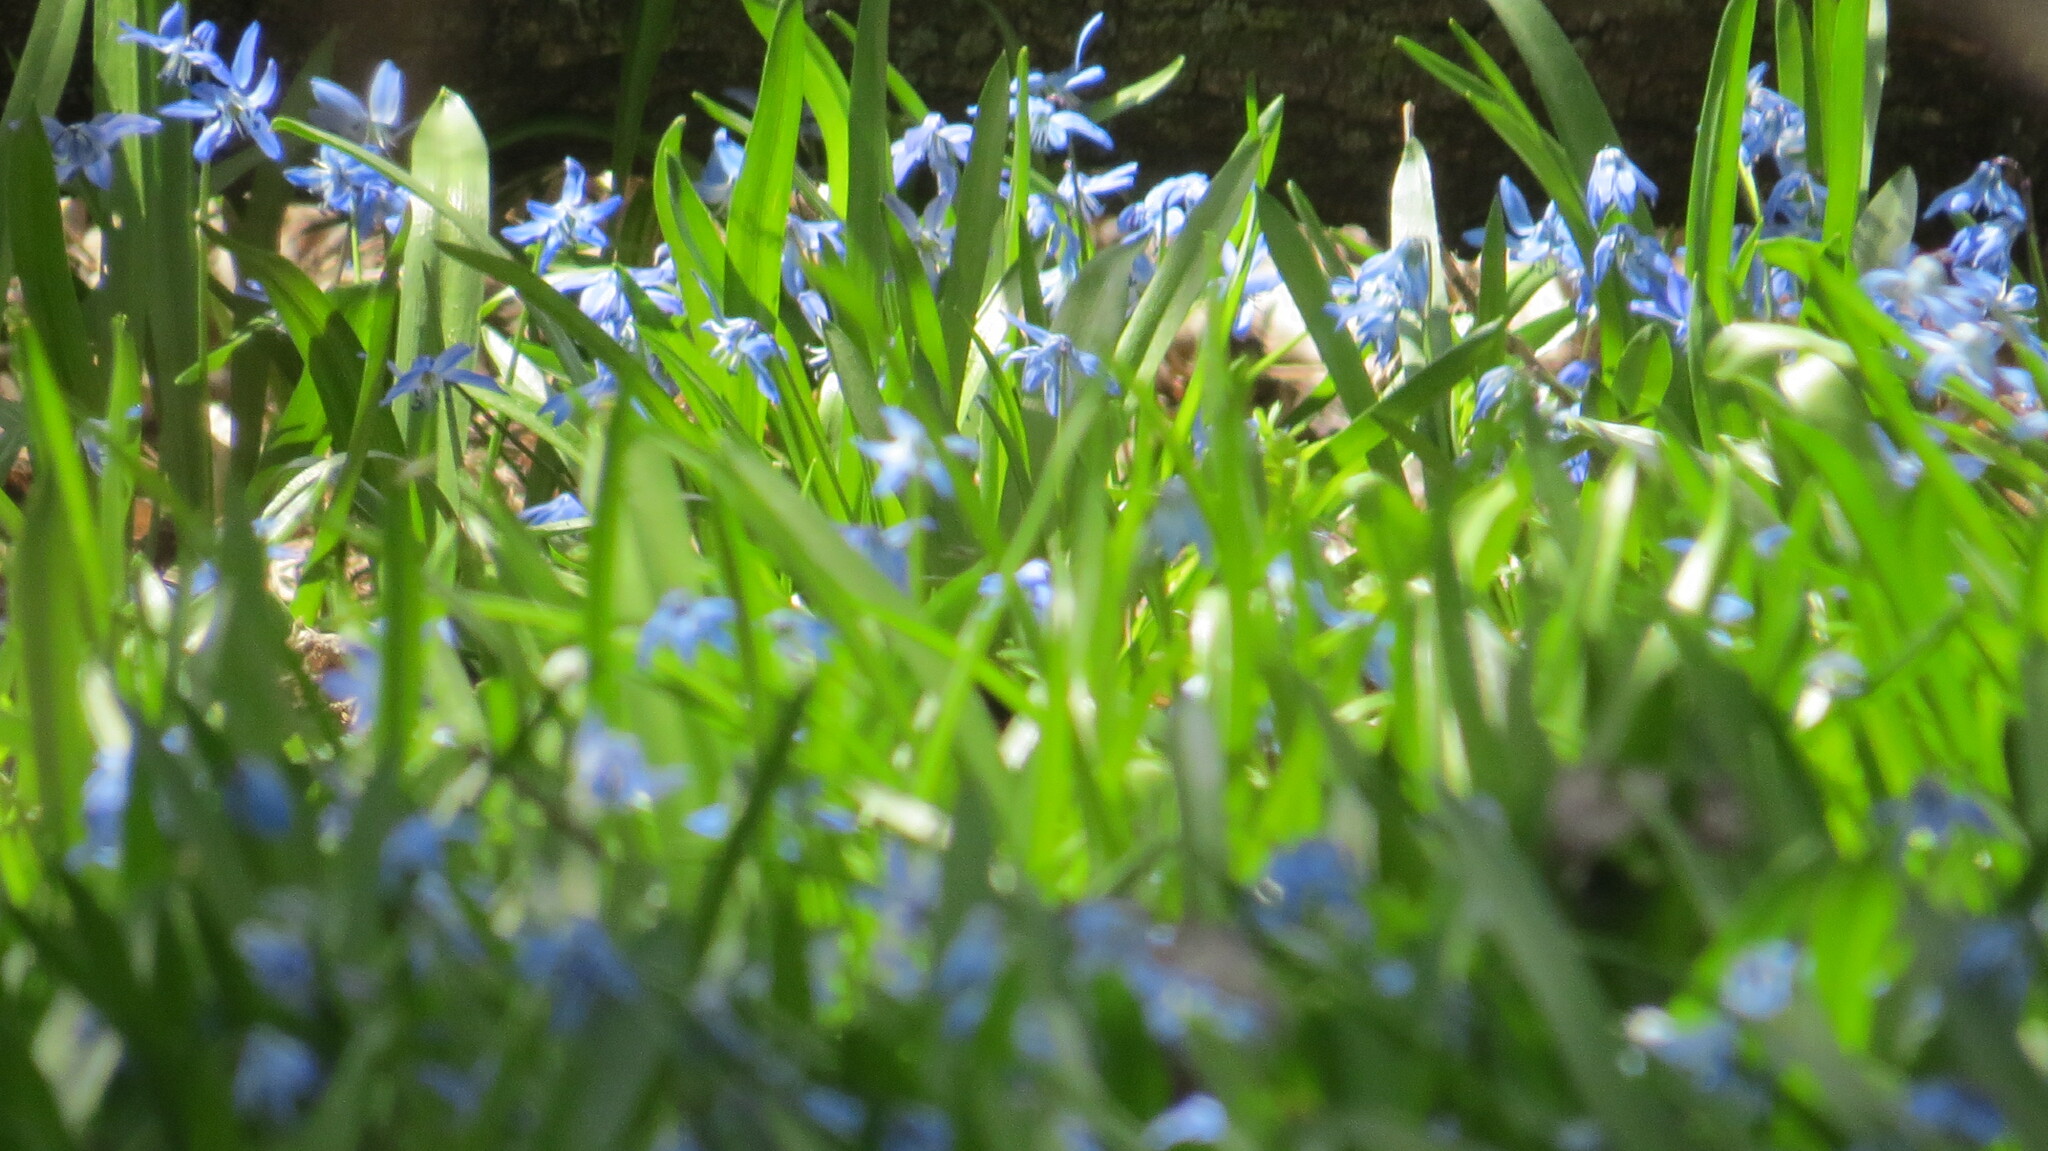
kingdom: Plantae
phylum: Tracheophyta
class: Liliopsida
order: Asparagales
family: Asparagaceae
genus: Scilla
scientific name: Scilla siberica
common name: Siberian squill
